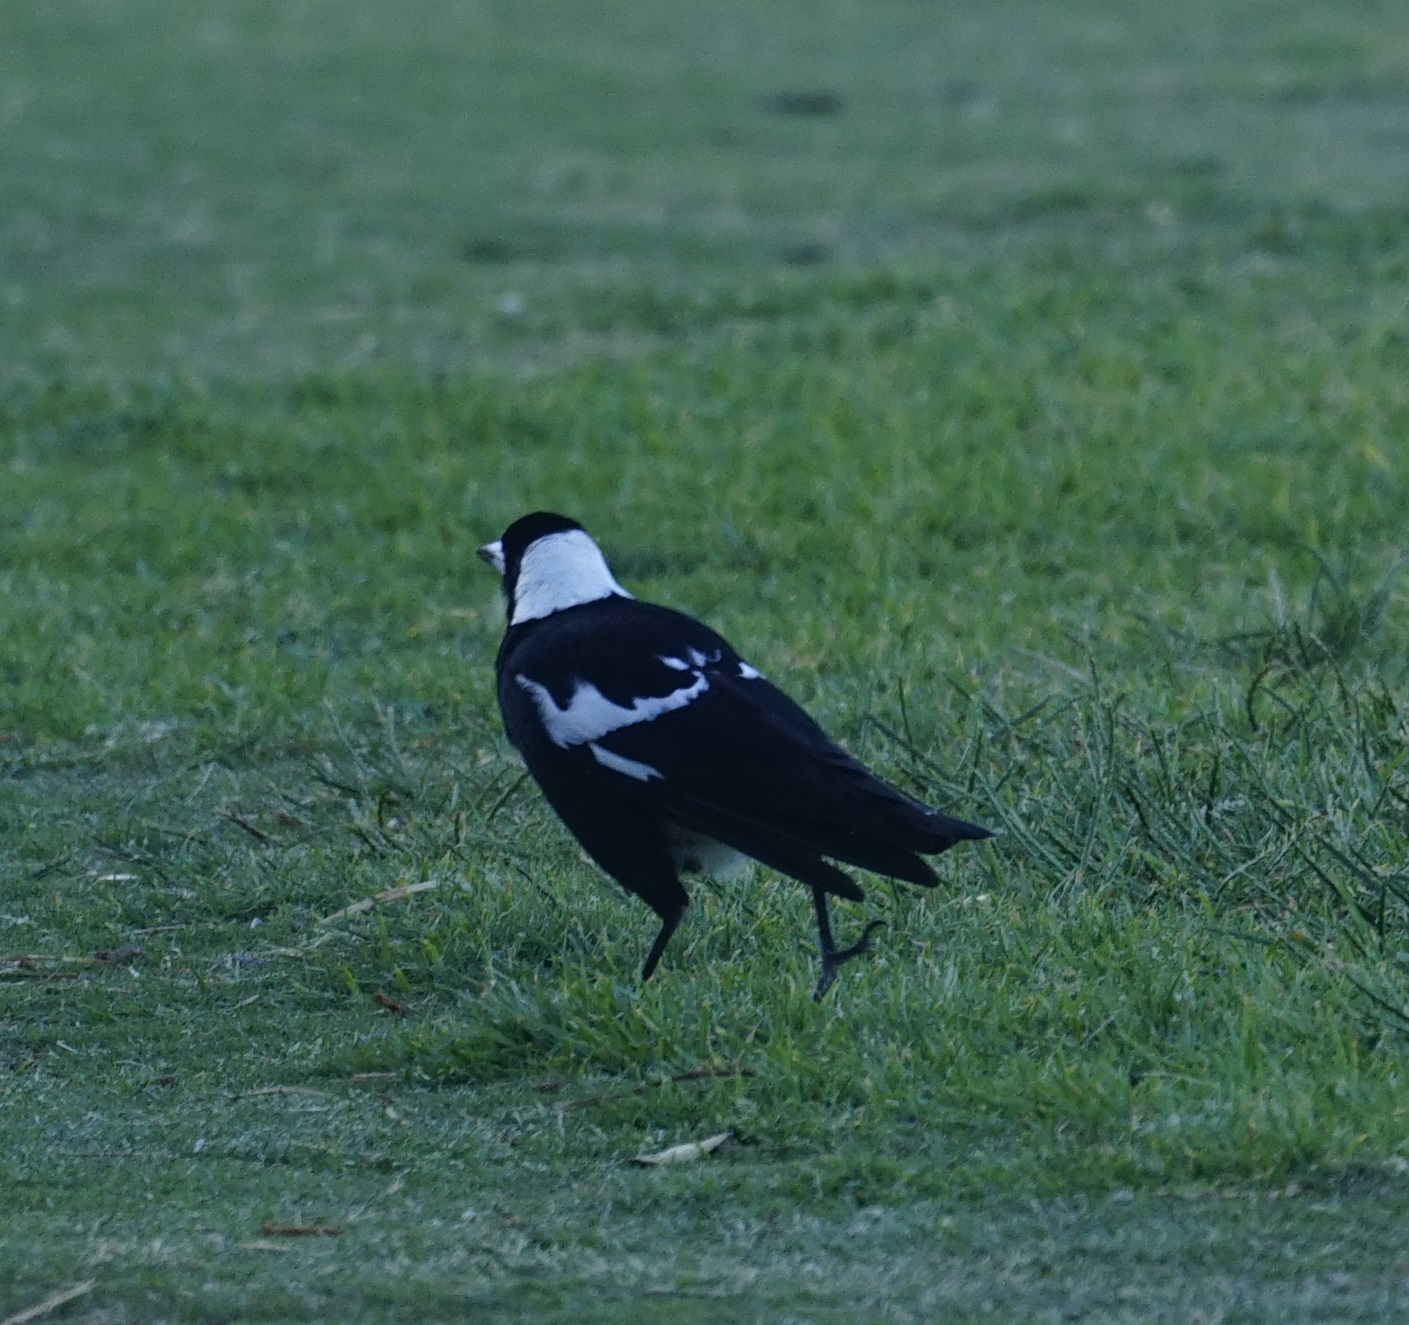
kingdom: Animalia
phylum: Chordata
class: Aves
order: Passeriformes
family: Cracticidae
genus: Gymnorhina
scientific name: Gymnorhina tibicen
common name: Australian magpie
